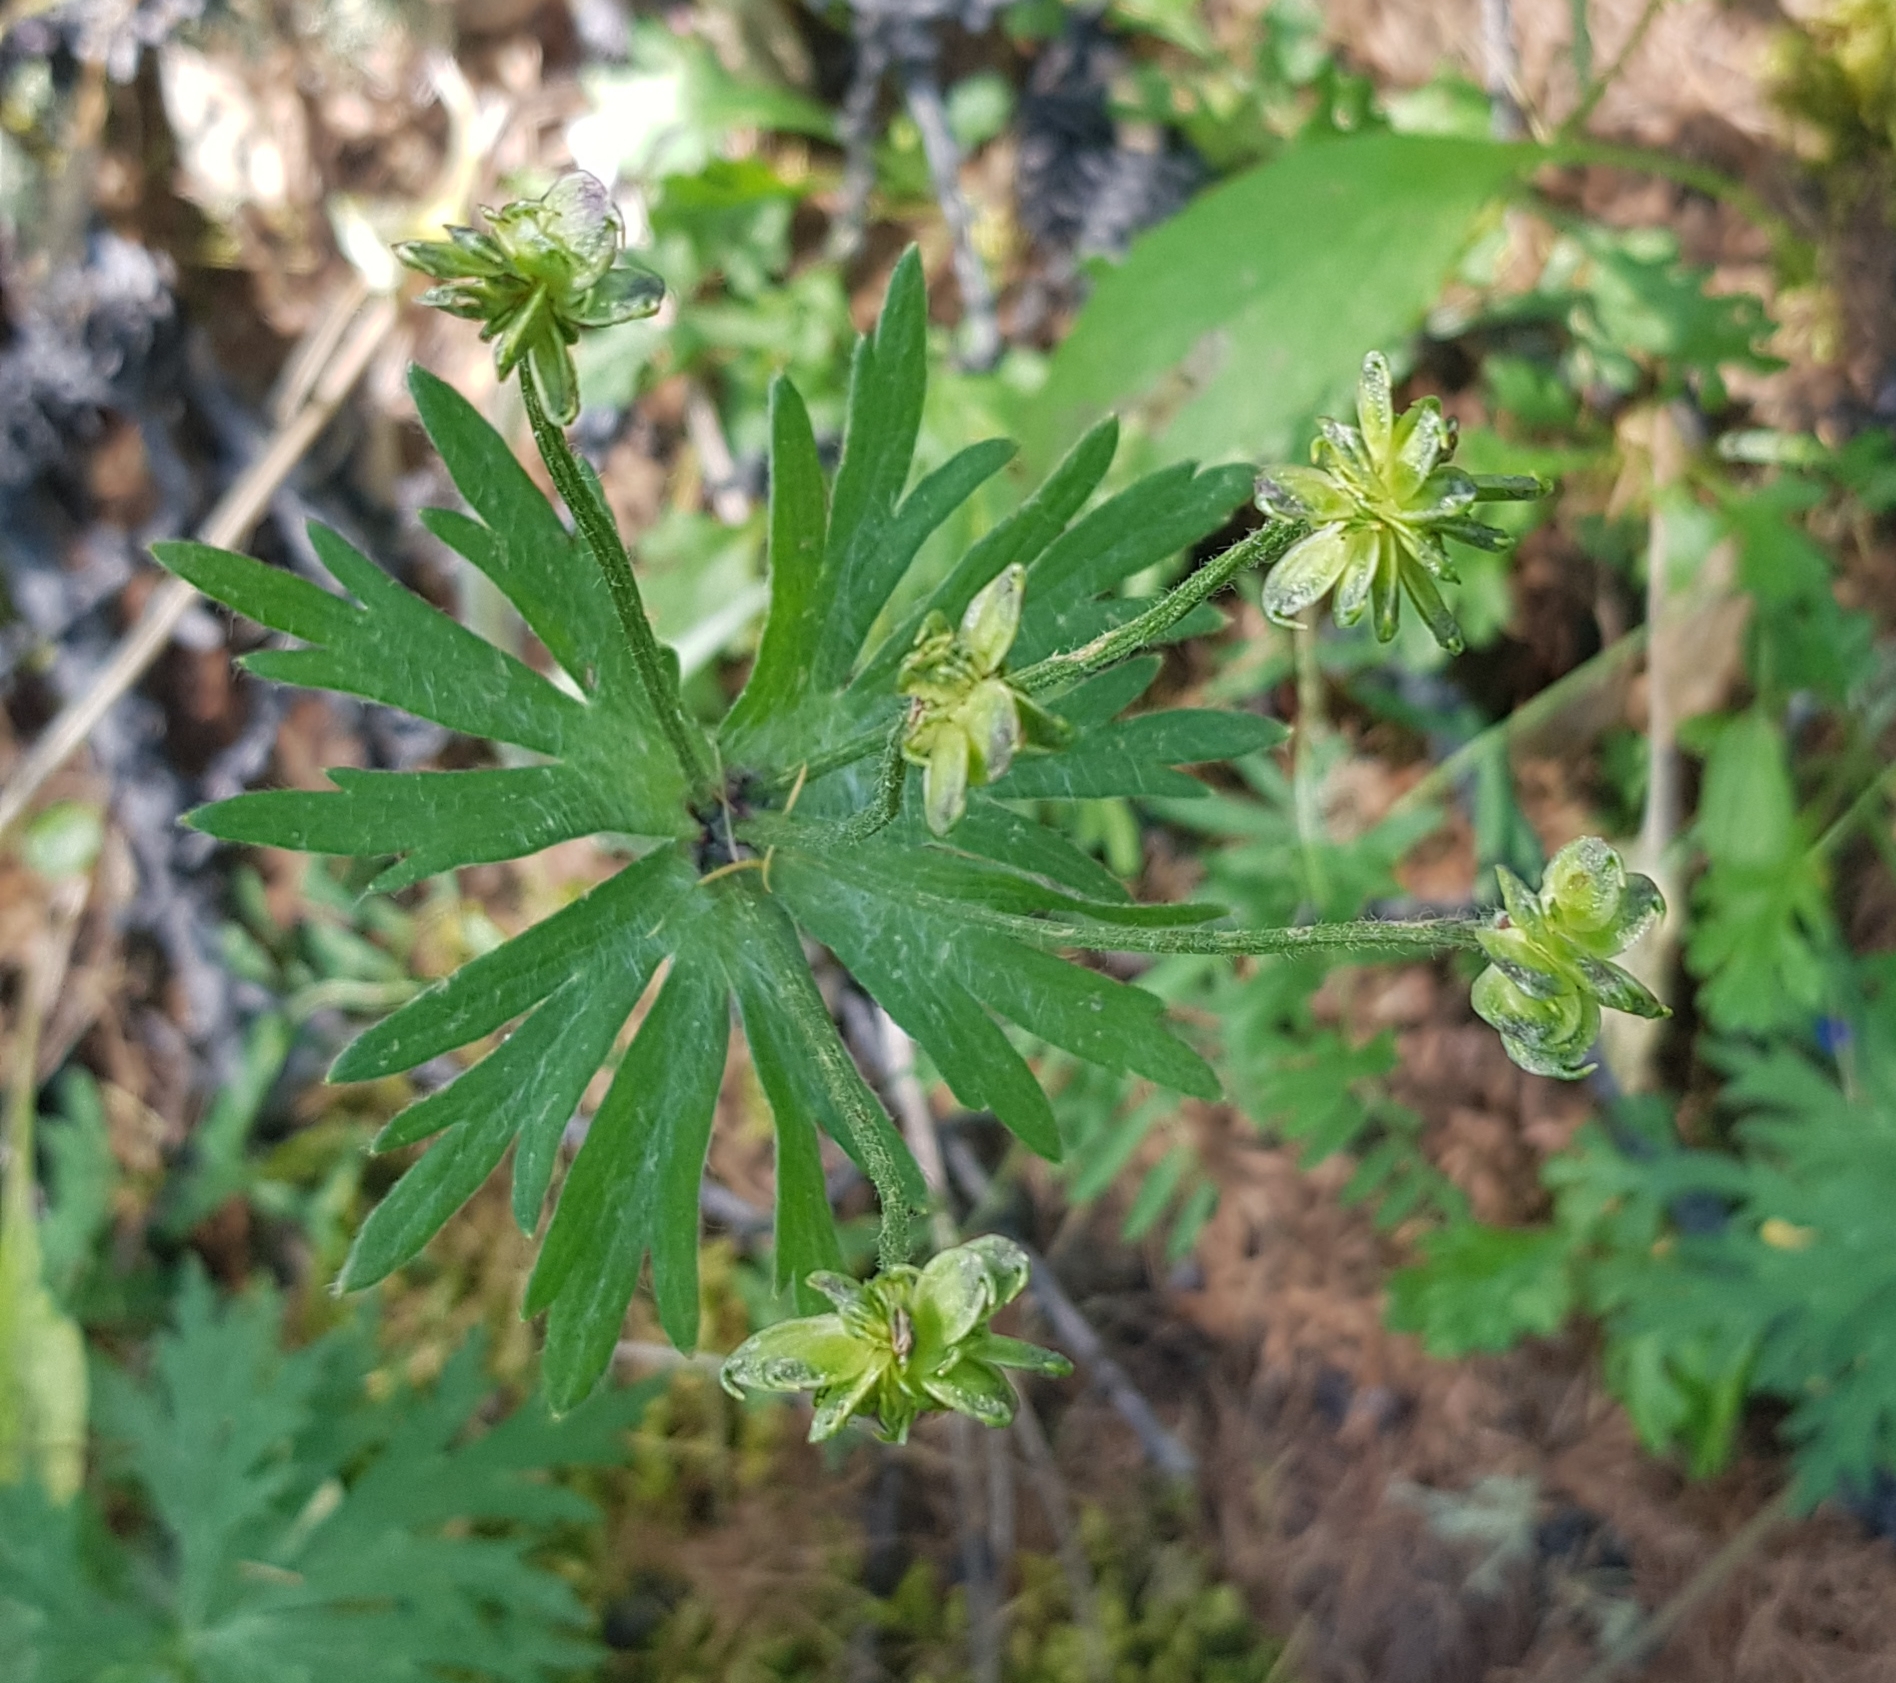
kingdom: Plantae
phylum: Tracheophyta
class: Magnoliopsida
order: Ranunculales
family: Ranunculaceae
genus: Anemonastrum
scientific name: Anemonastrum narcissiflorum
